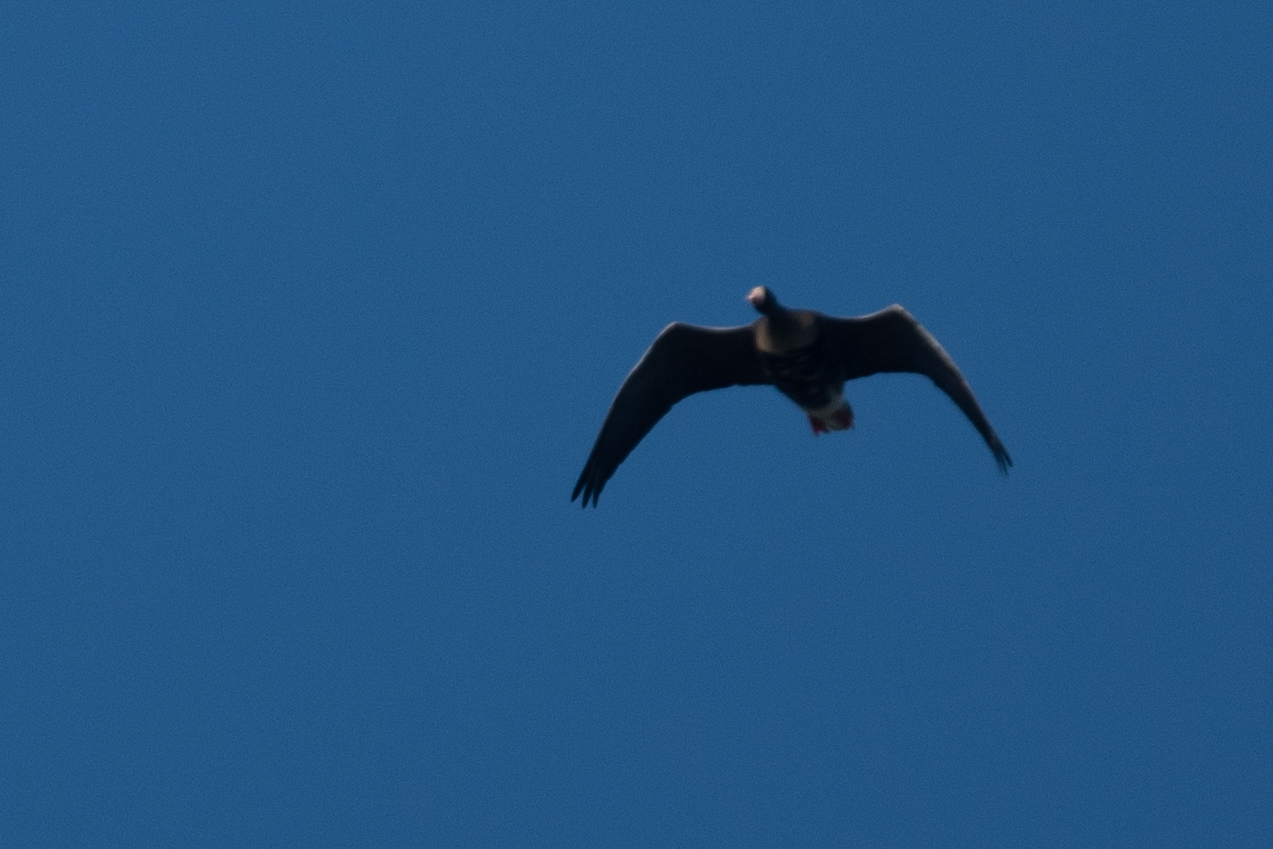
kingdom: Animalia
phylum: Chordata
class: Aves
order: Anseriformes
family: Anatidae
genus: Anser
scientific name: Anser albifrons
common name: Greater white-fronted goose
